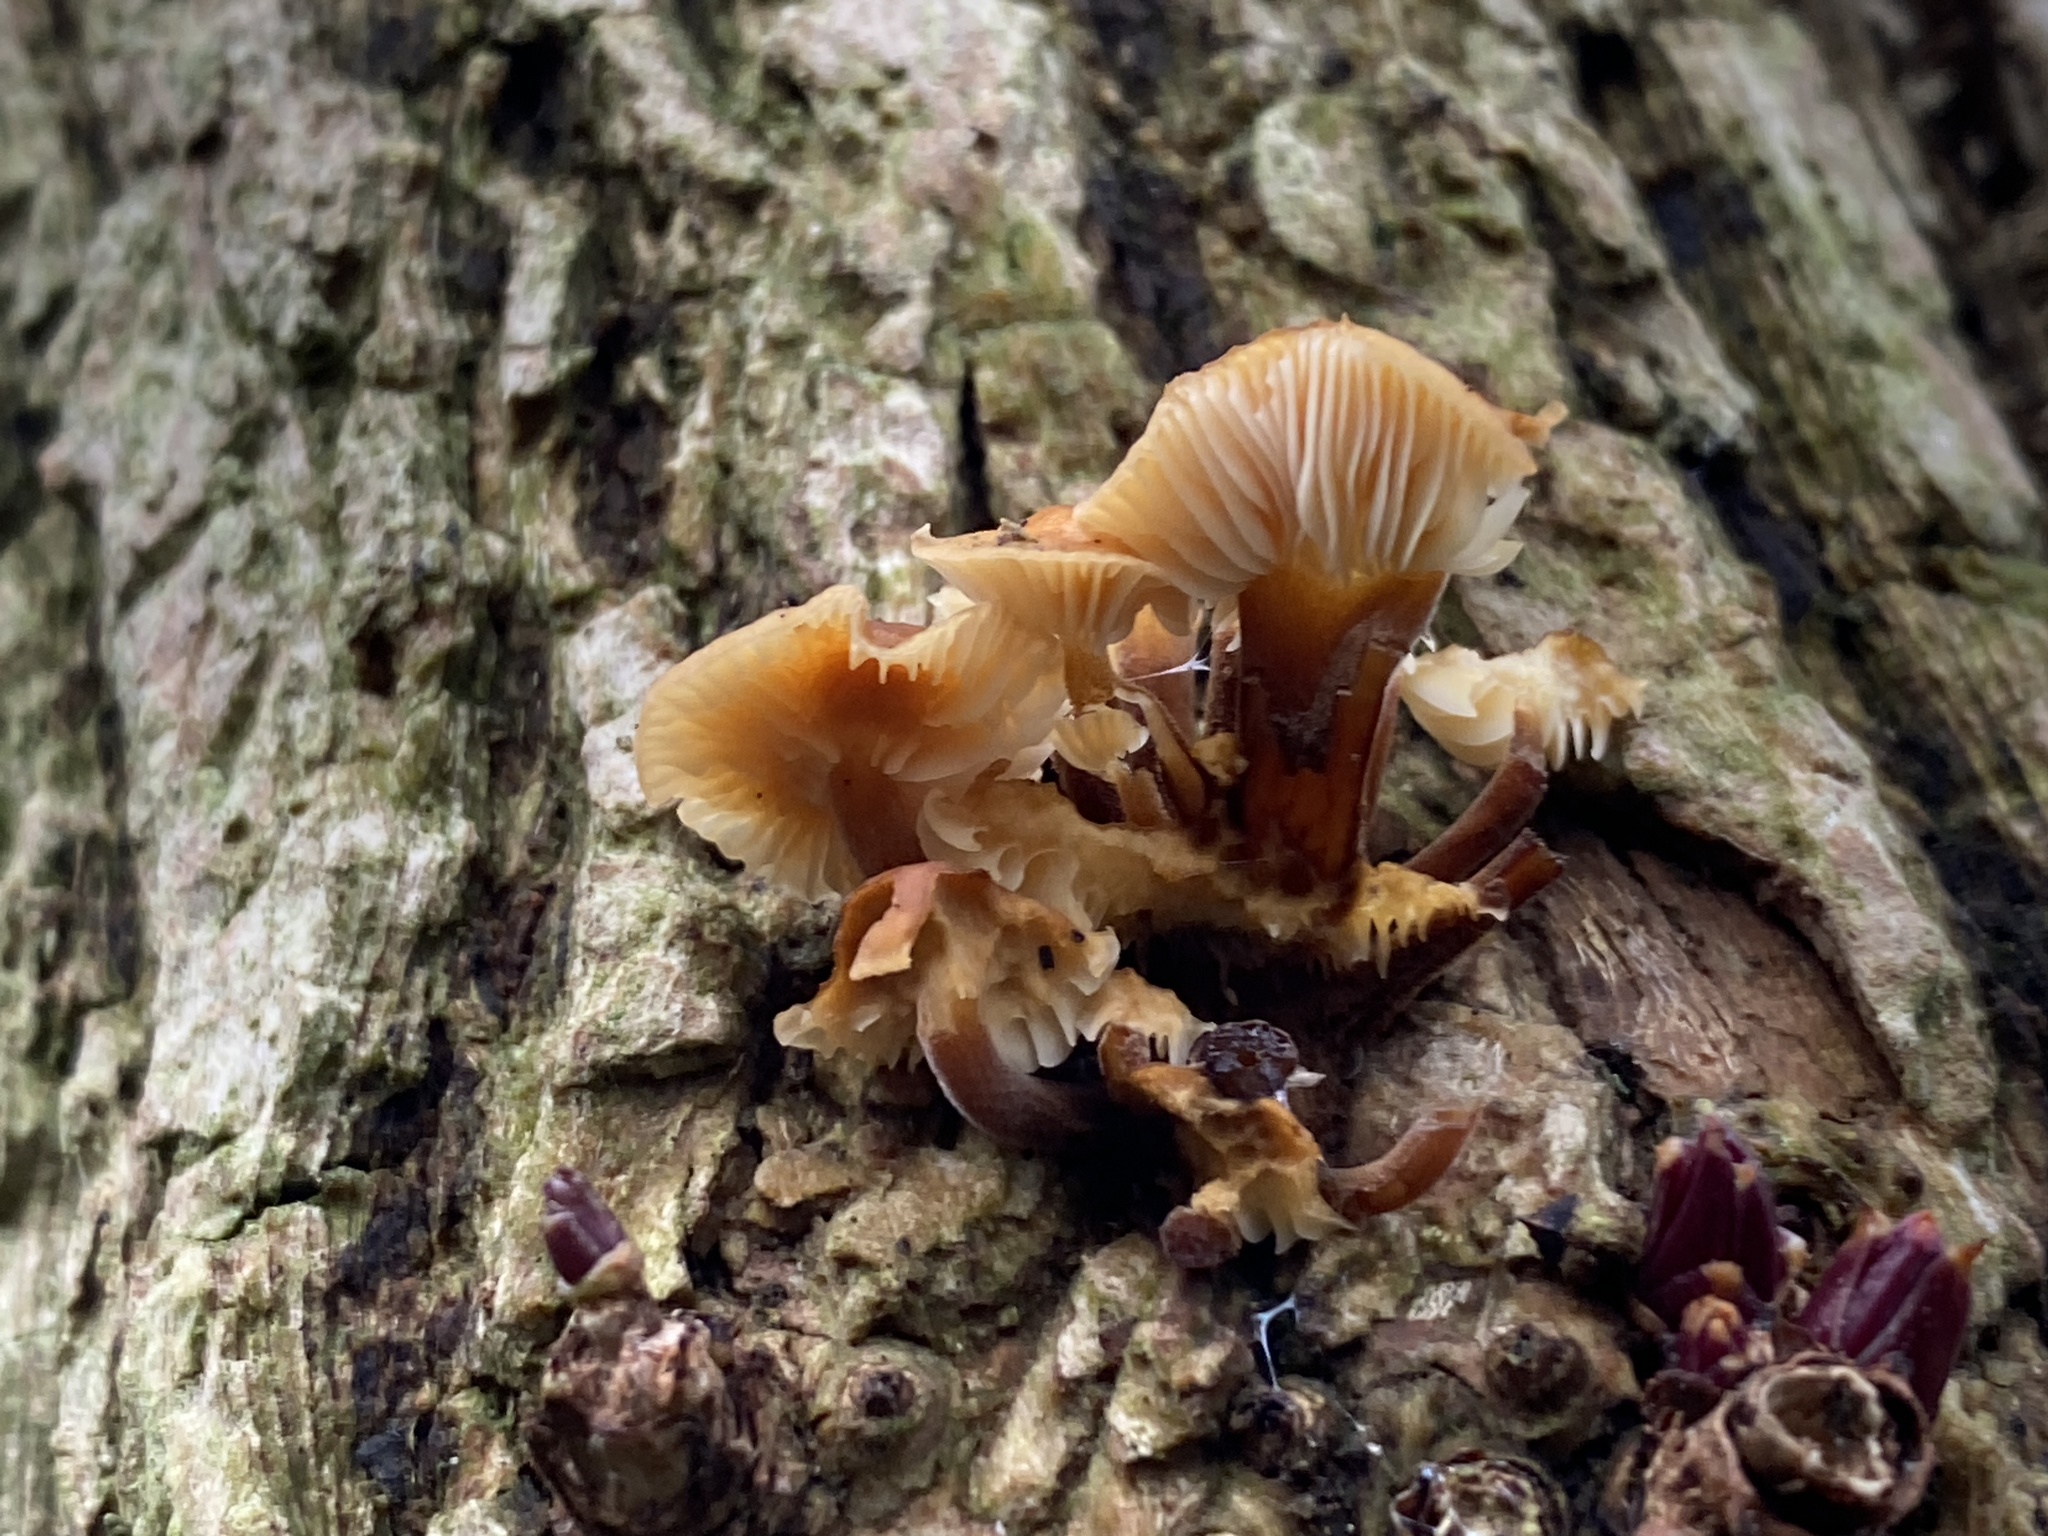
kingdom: Fungi
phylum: Basidiomycota
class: Agaricomycetes
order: Agaricales
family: Physalacriaceae
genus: Flammulina
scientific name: Flammulina
